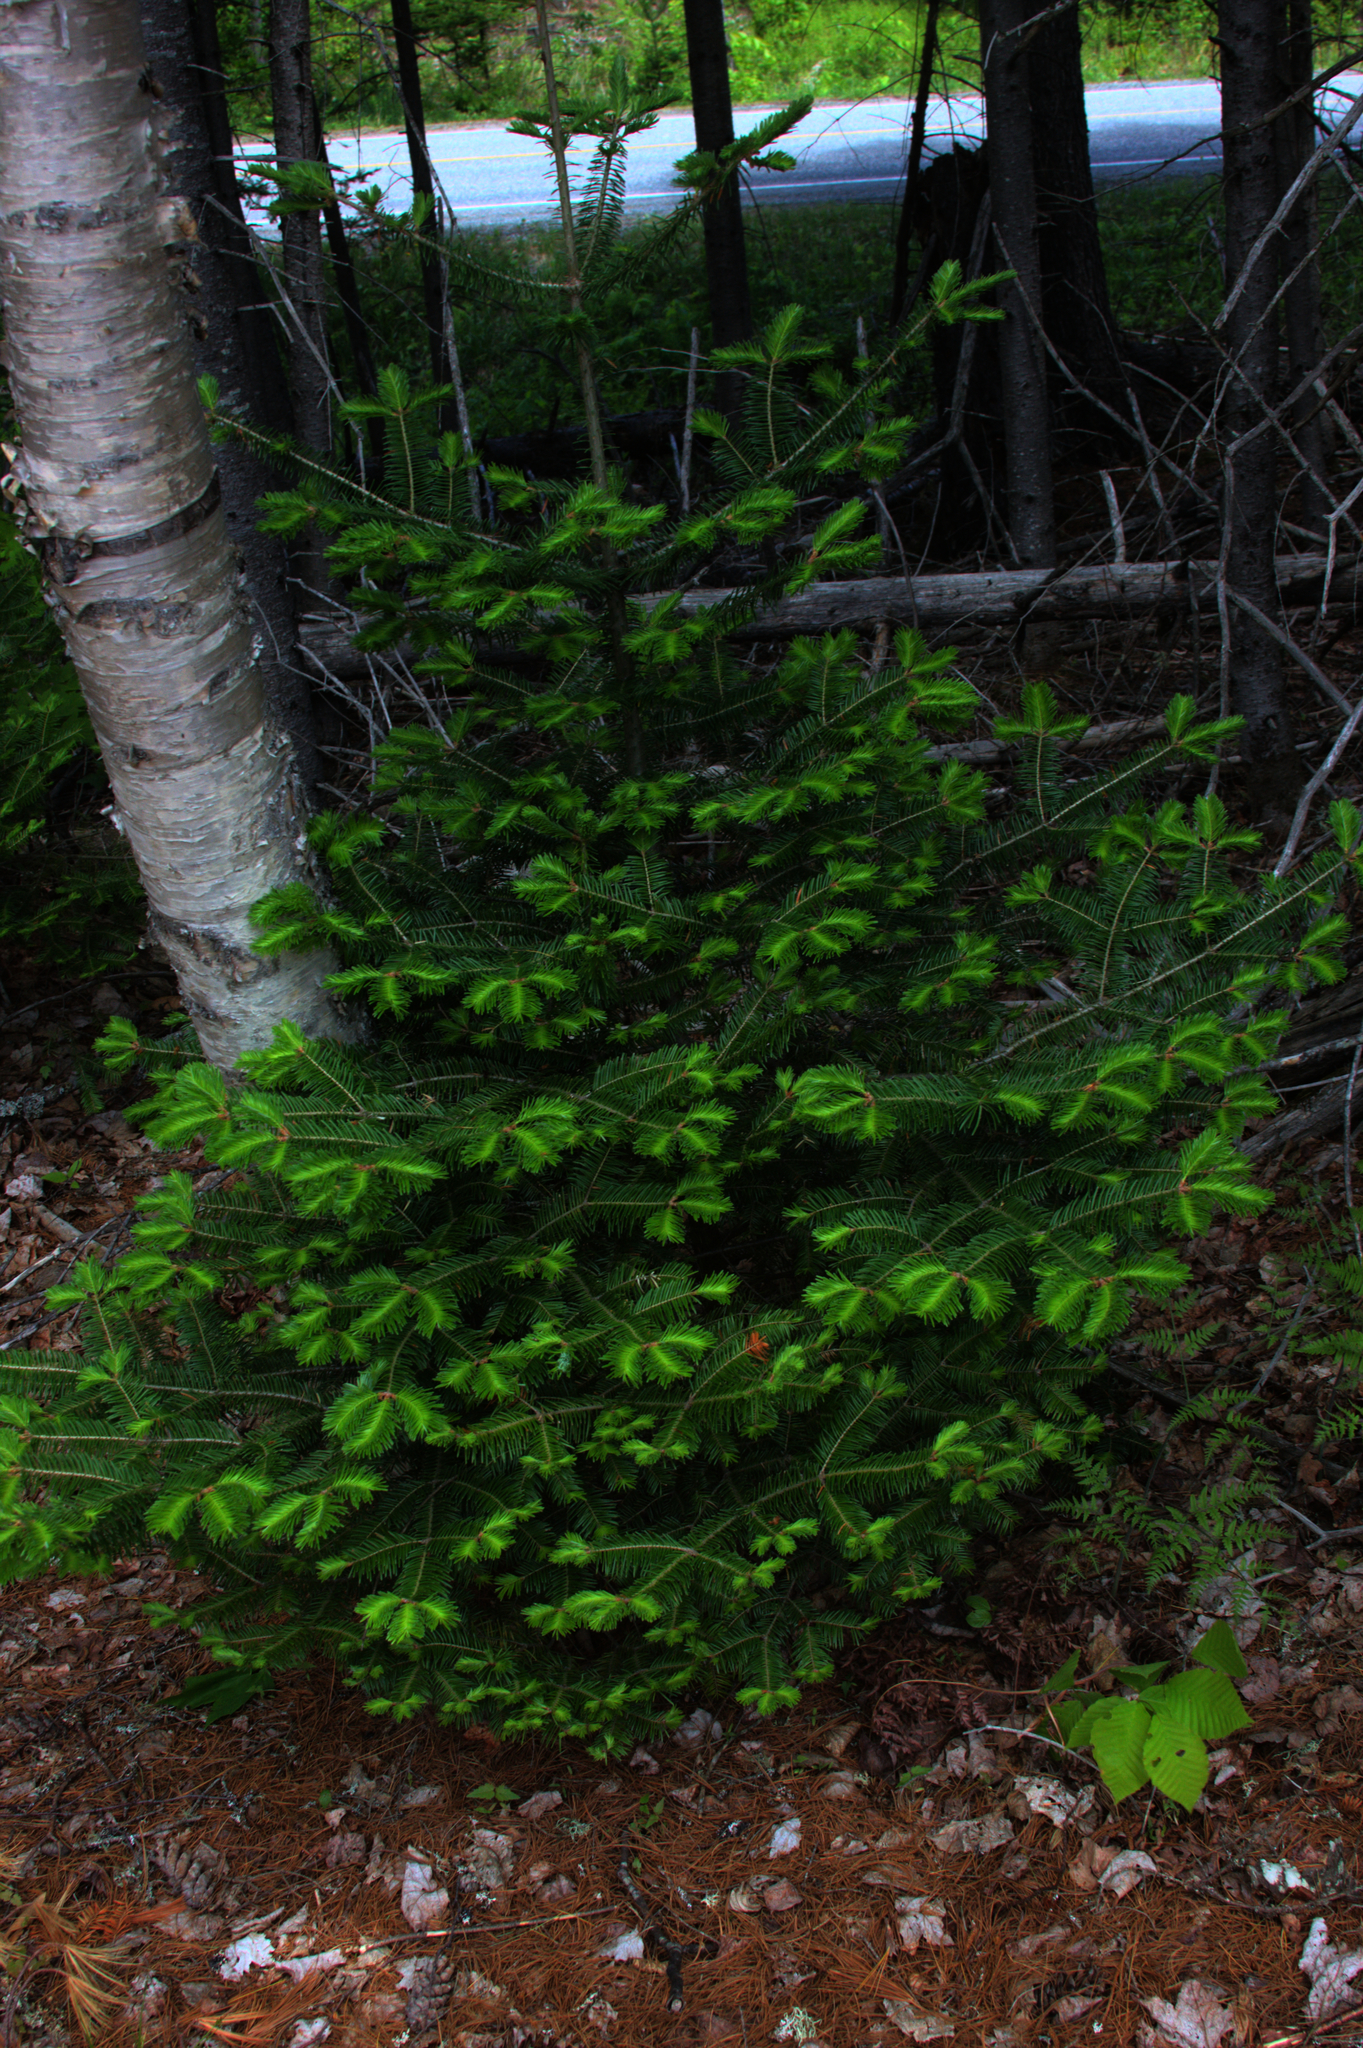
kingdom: Plantae
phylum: Tracheophyta
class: Pinopsida
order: Pinales
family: Pinaceae
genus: Abies
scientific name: Abies balsamea
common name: Balsam fir
